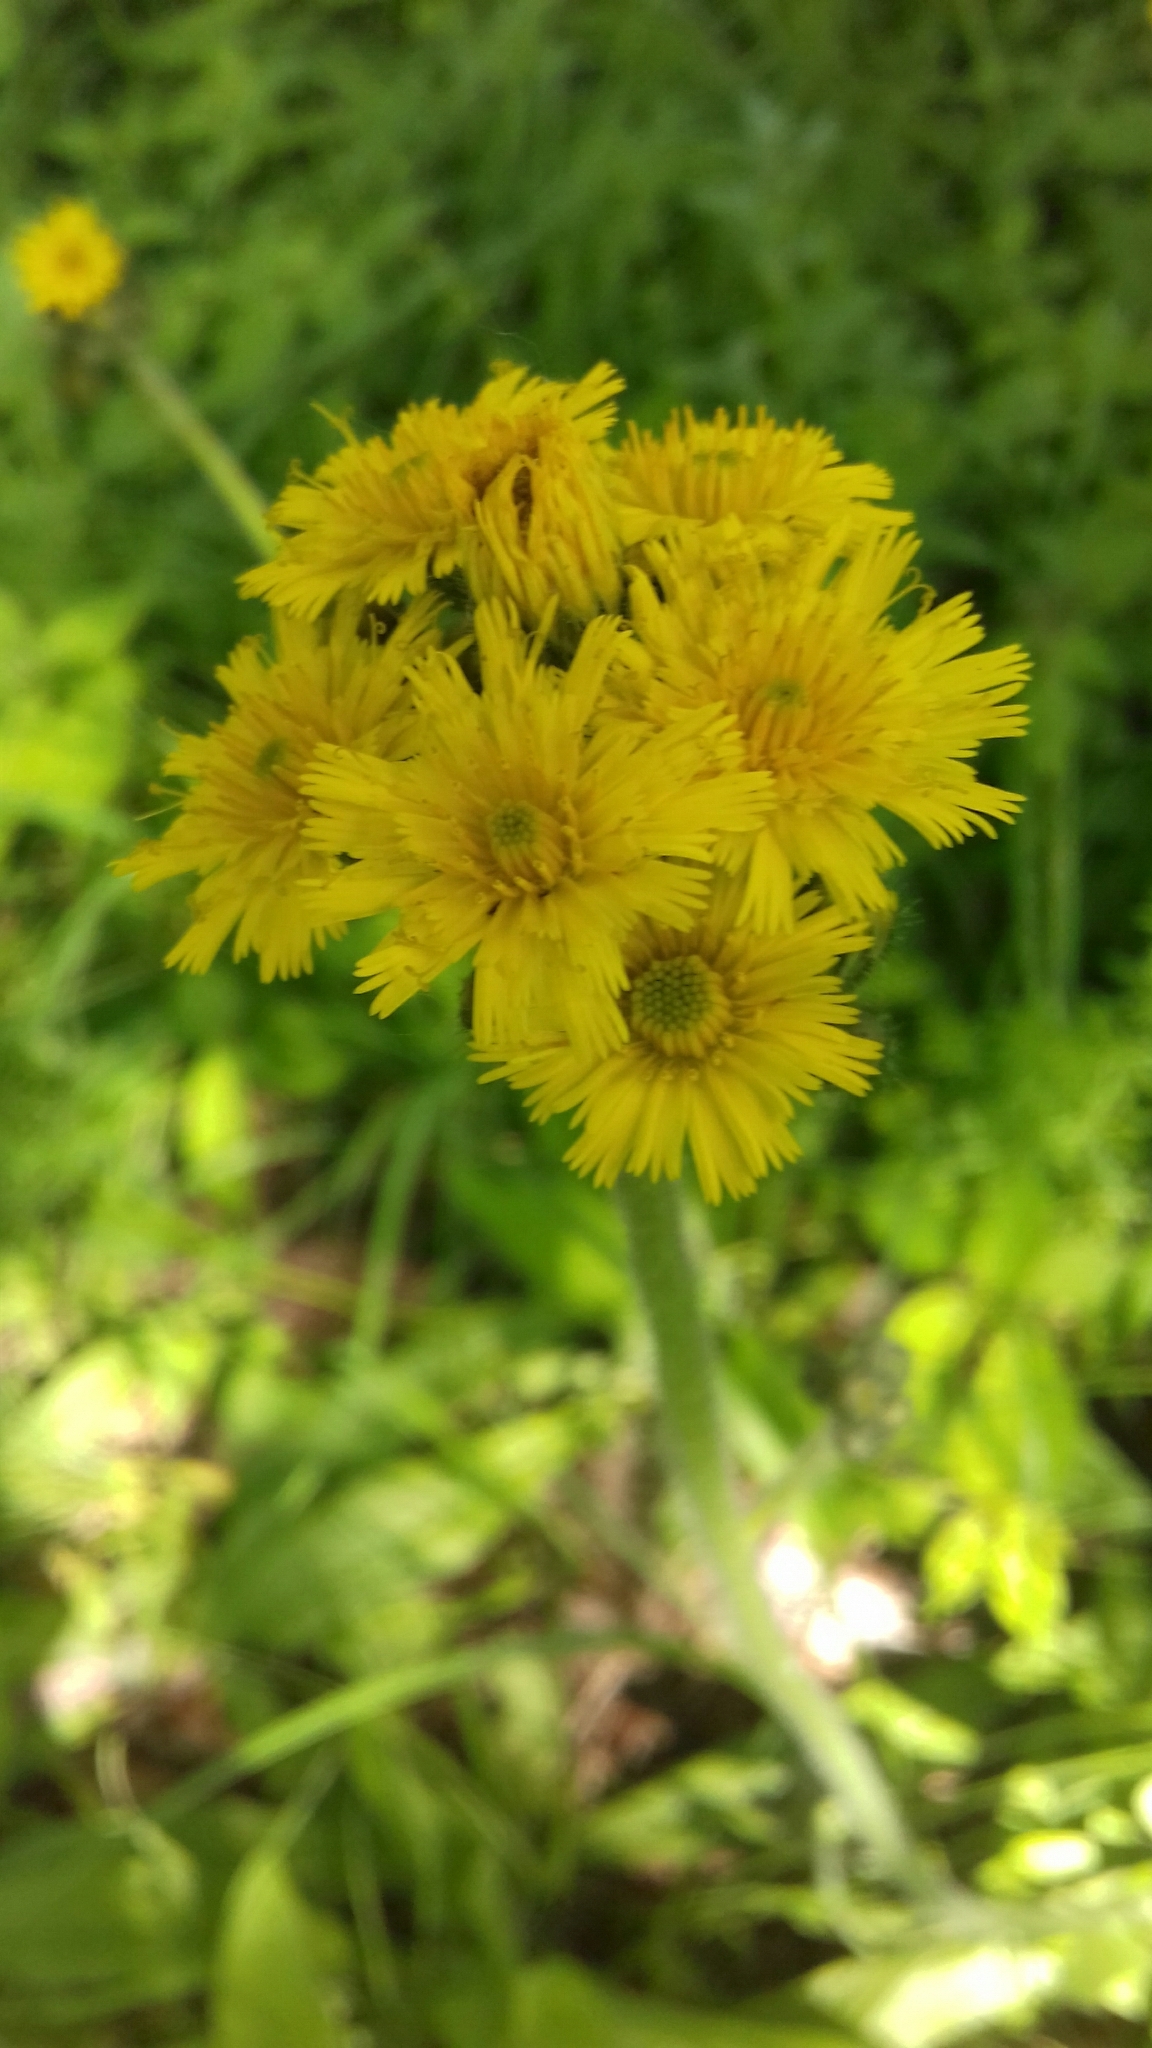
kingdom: Plantae
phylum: Tracheophyta
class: Magnoliopsida
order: Asterales
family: Asteraceae
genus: Pilosella
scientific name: Pilosella
